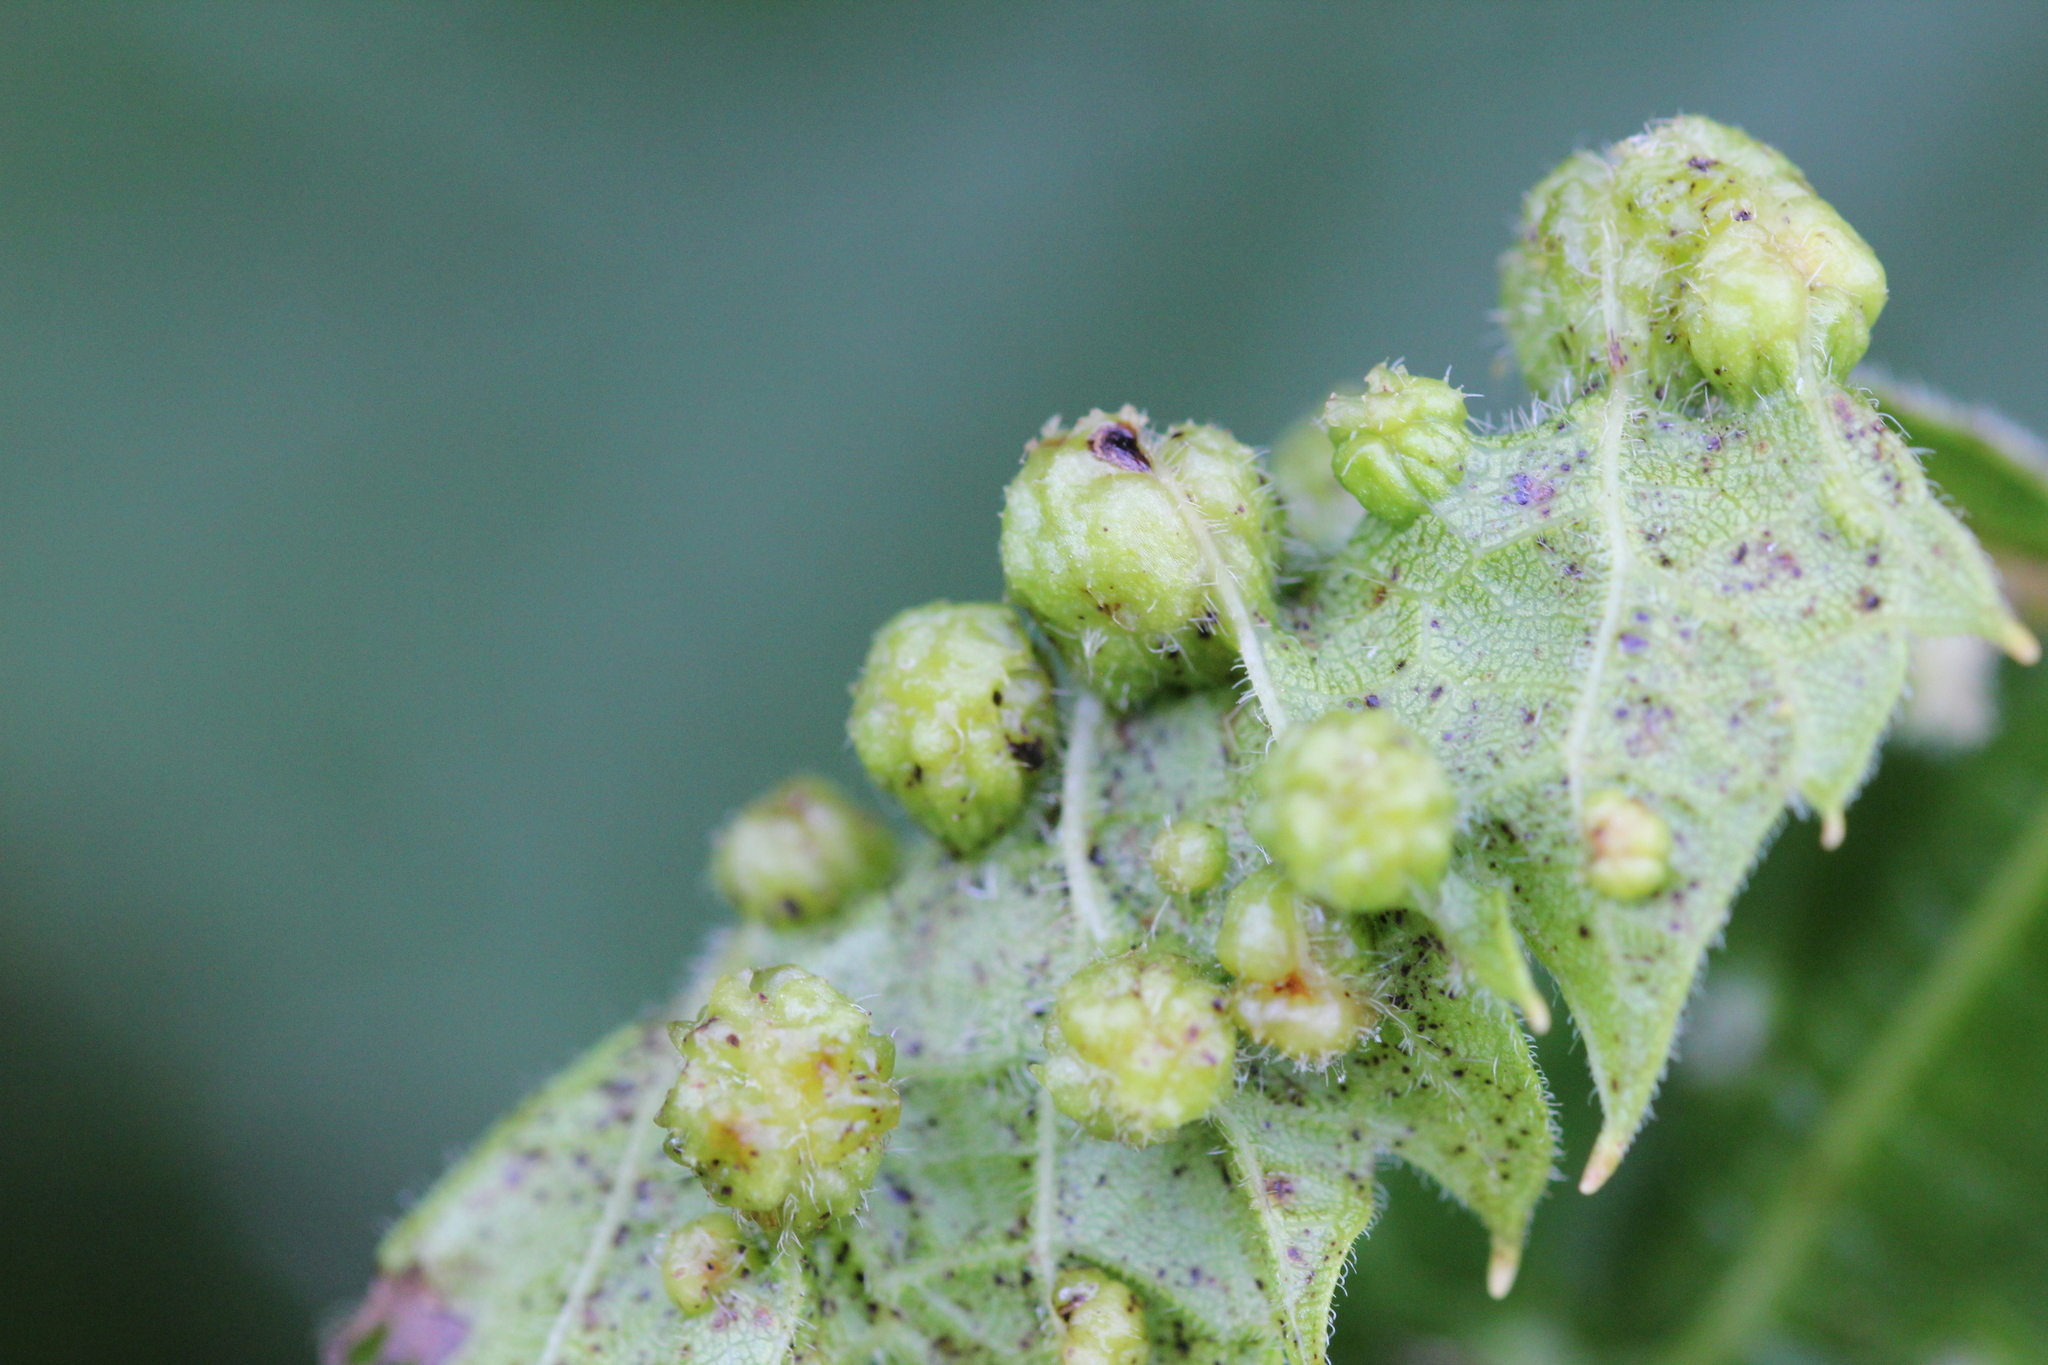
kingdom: Animalia
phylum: Arthropoda
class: Insecta
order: Hemiptera
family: Phylloxeridae
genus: Daktulosphaira
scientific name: Daktulosphaira vitifoliae
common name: Grape phylloxera
